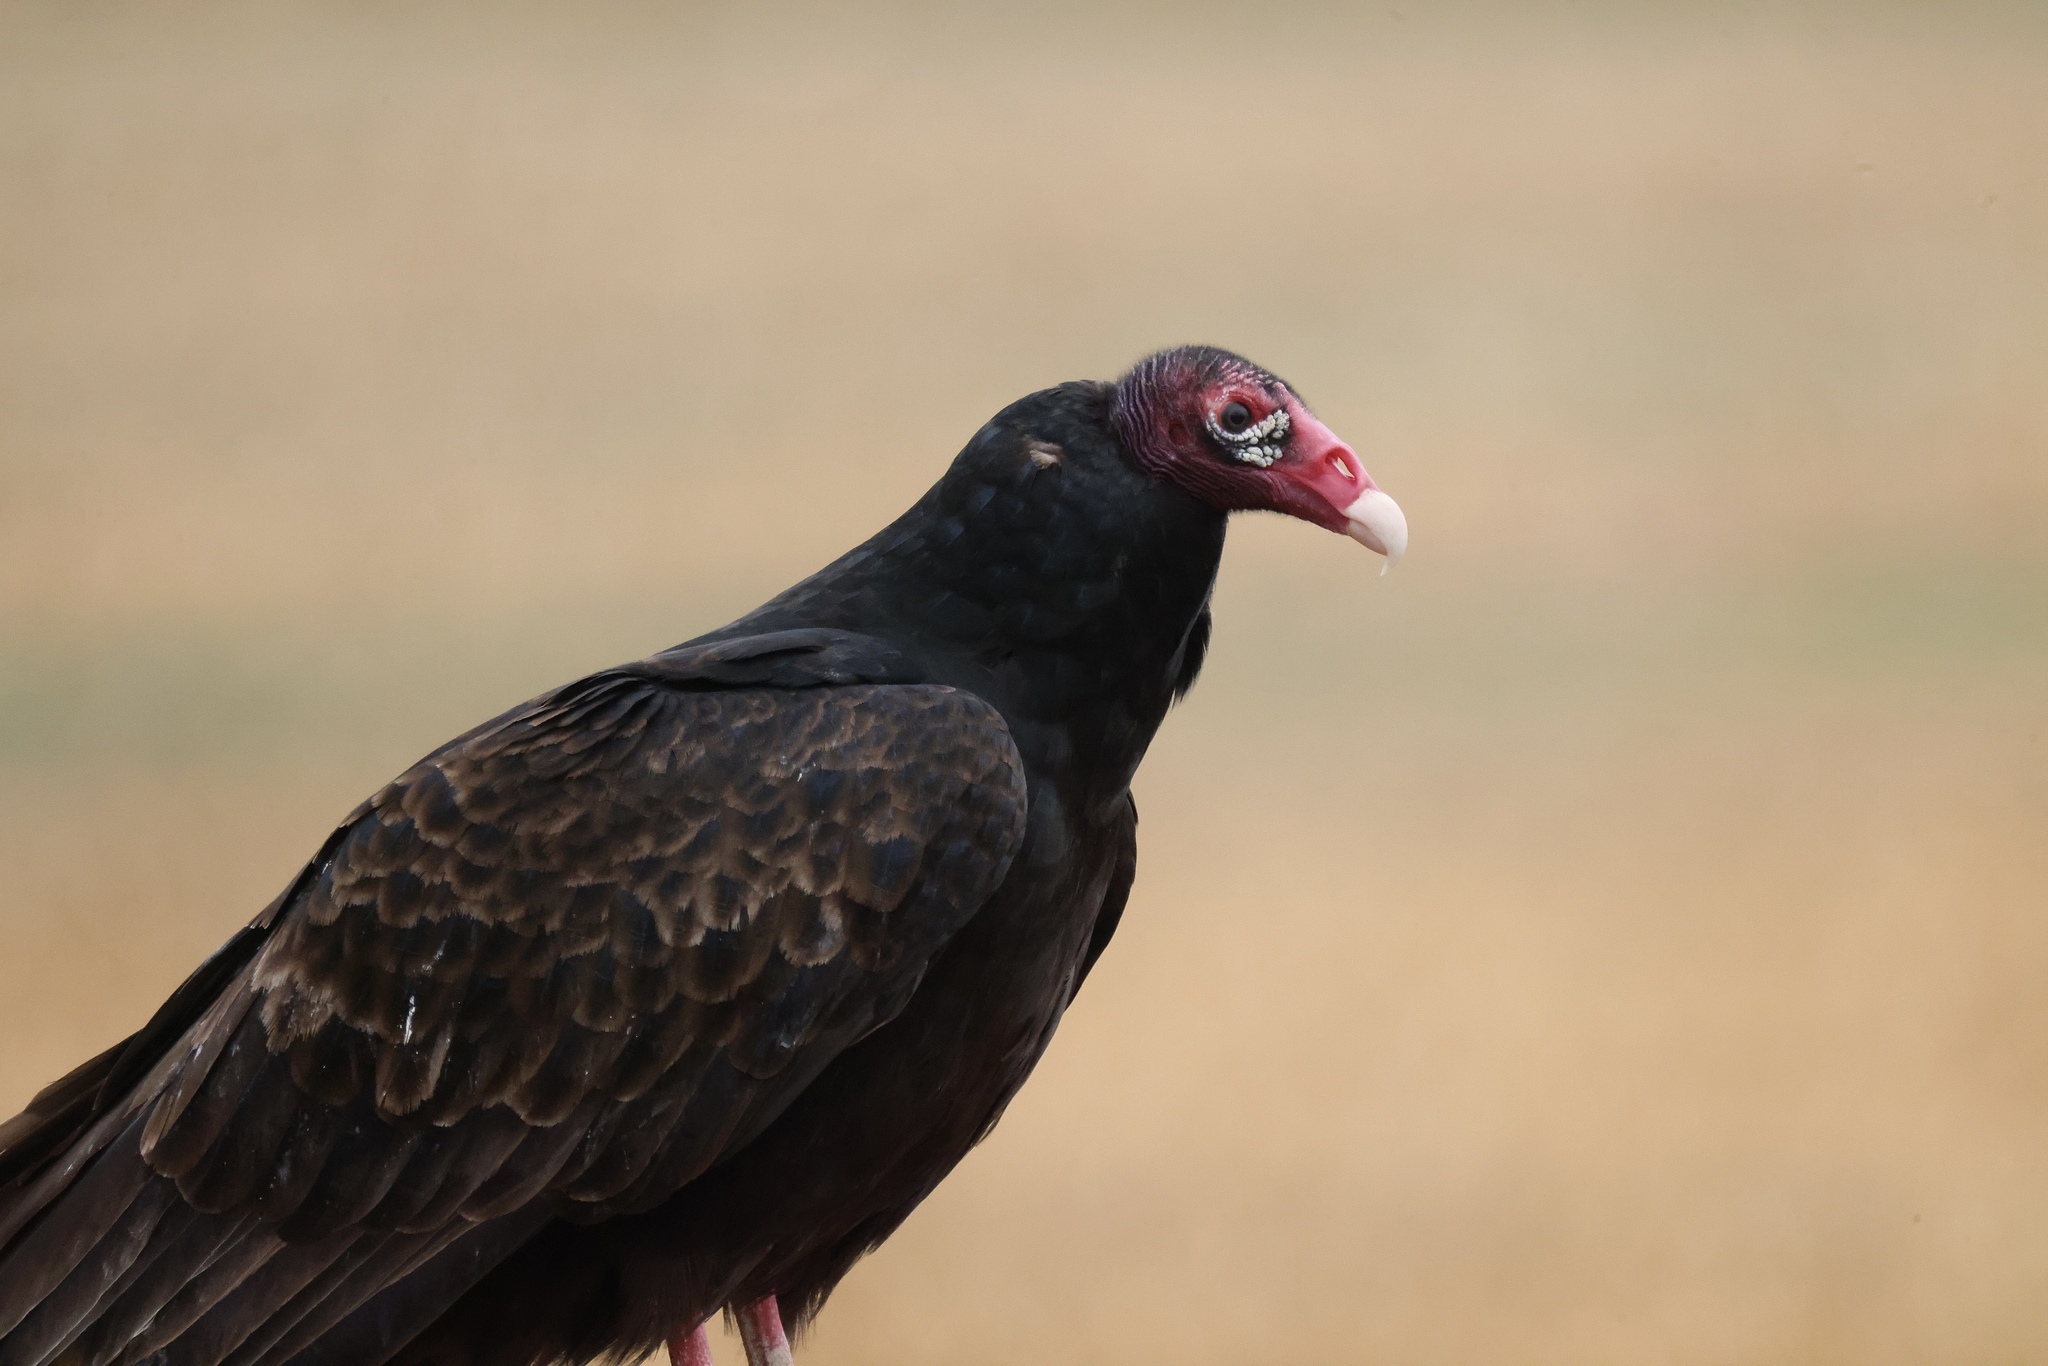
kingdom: Animalia
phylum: Chordata
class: Aves
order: Accipitriformes
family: Cathartidae
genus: Cathartes
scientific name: Cathartes aura
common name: Turkey vulture
